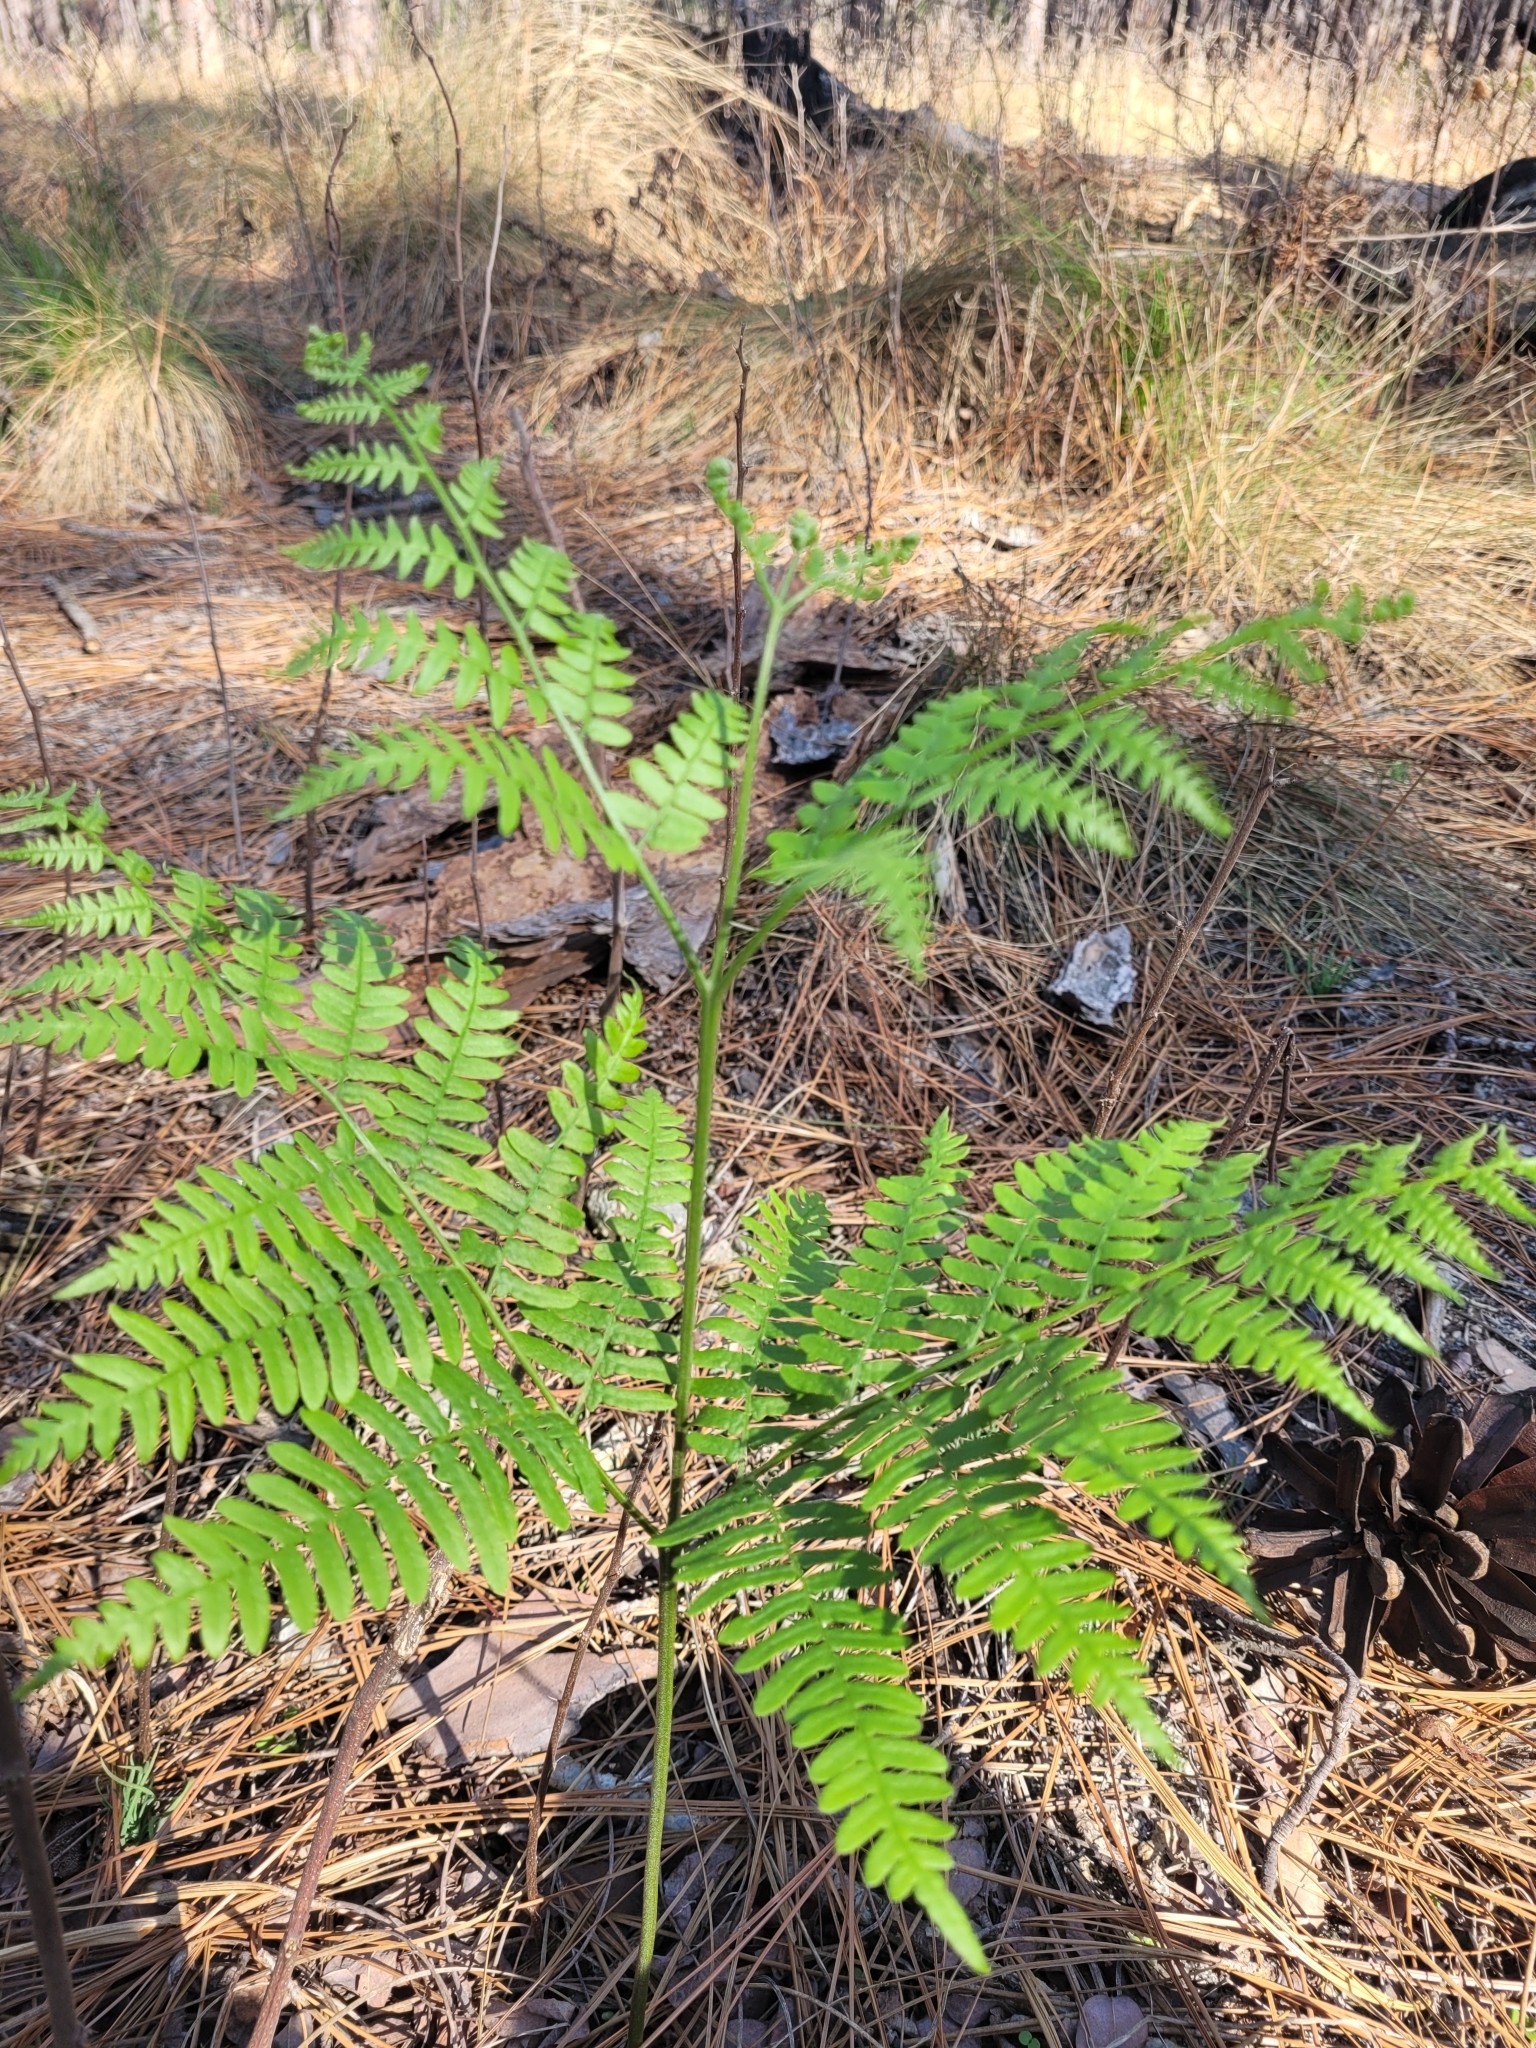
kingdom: Plantae
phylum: Tracheophyta
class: Polypodiopsida
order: Polypodiales
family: Dennstaedtiaceae
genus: Pteridium
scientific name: Pteridium
